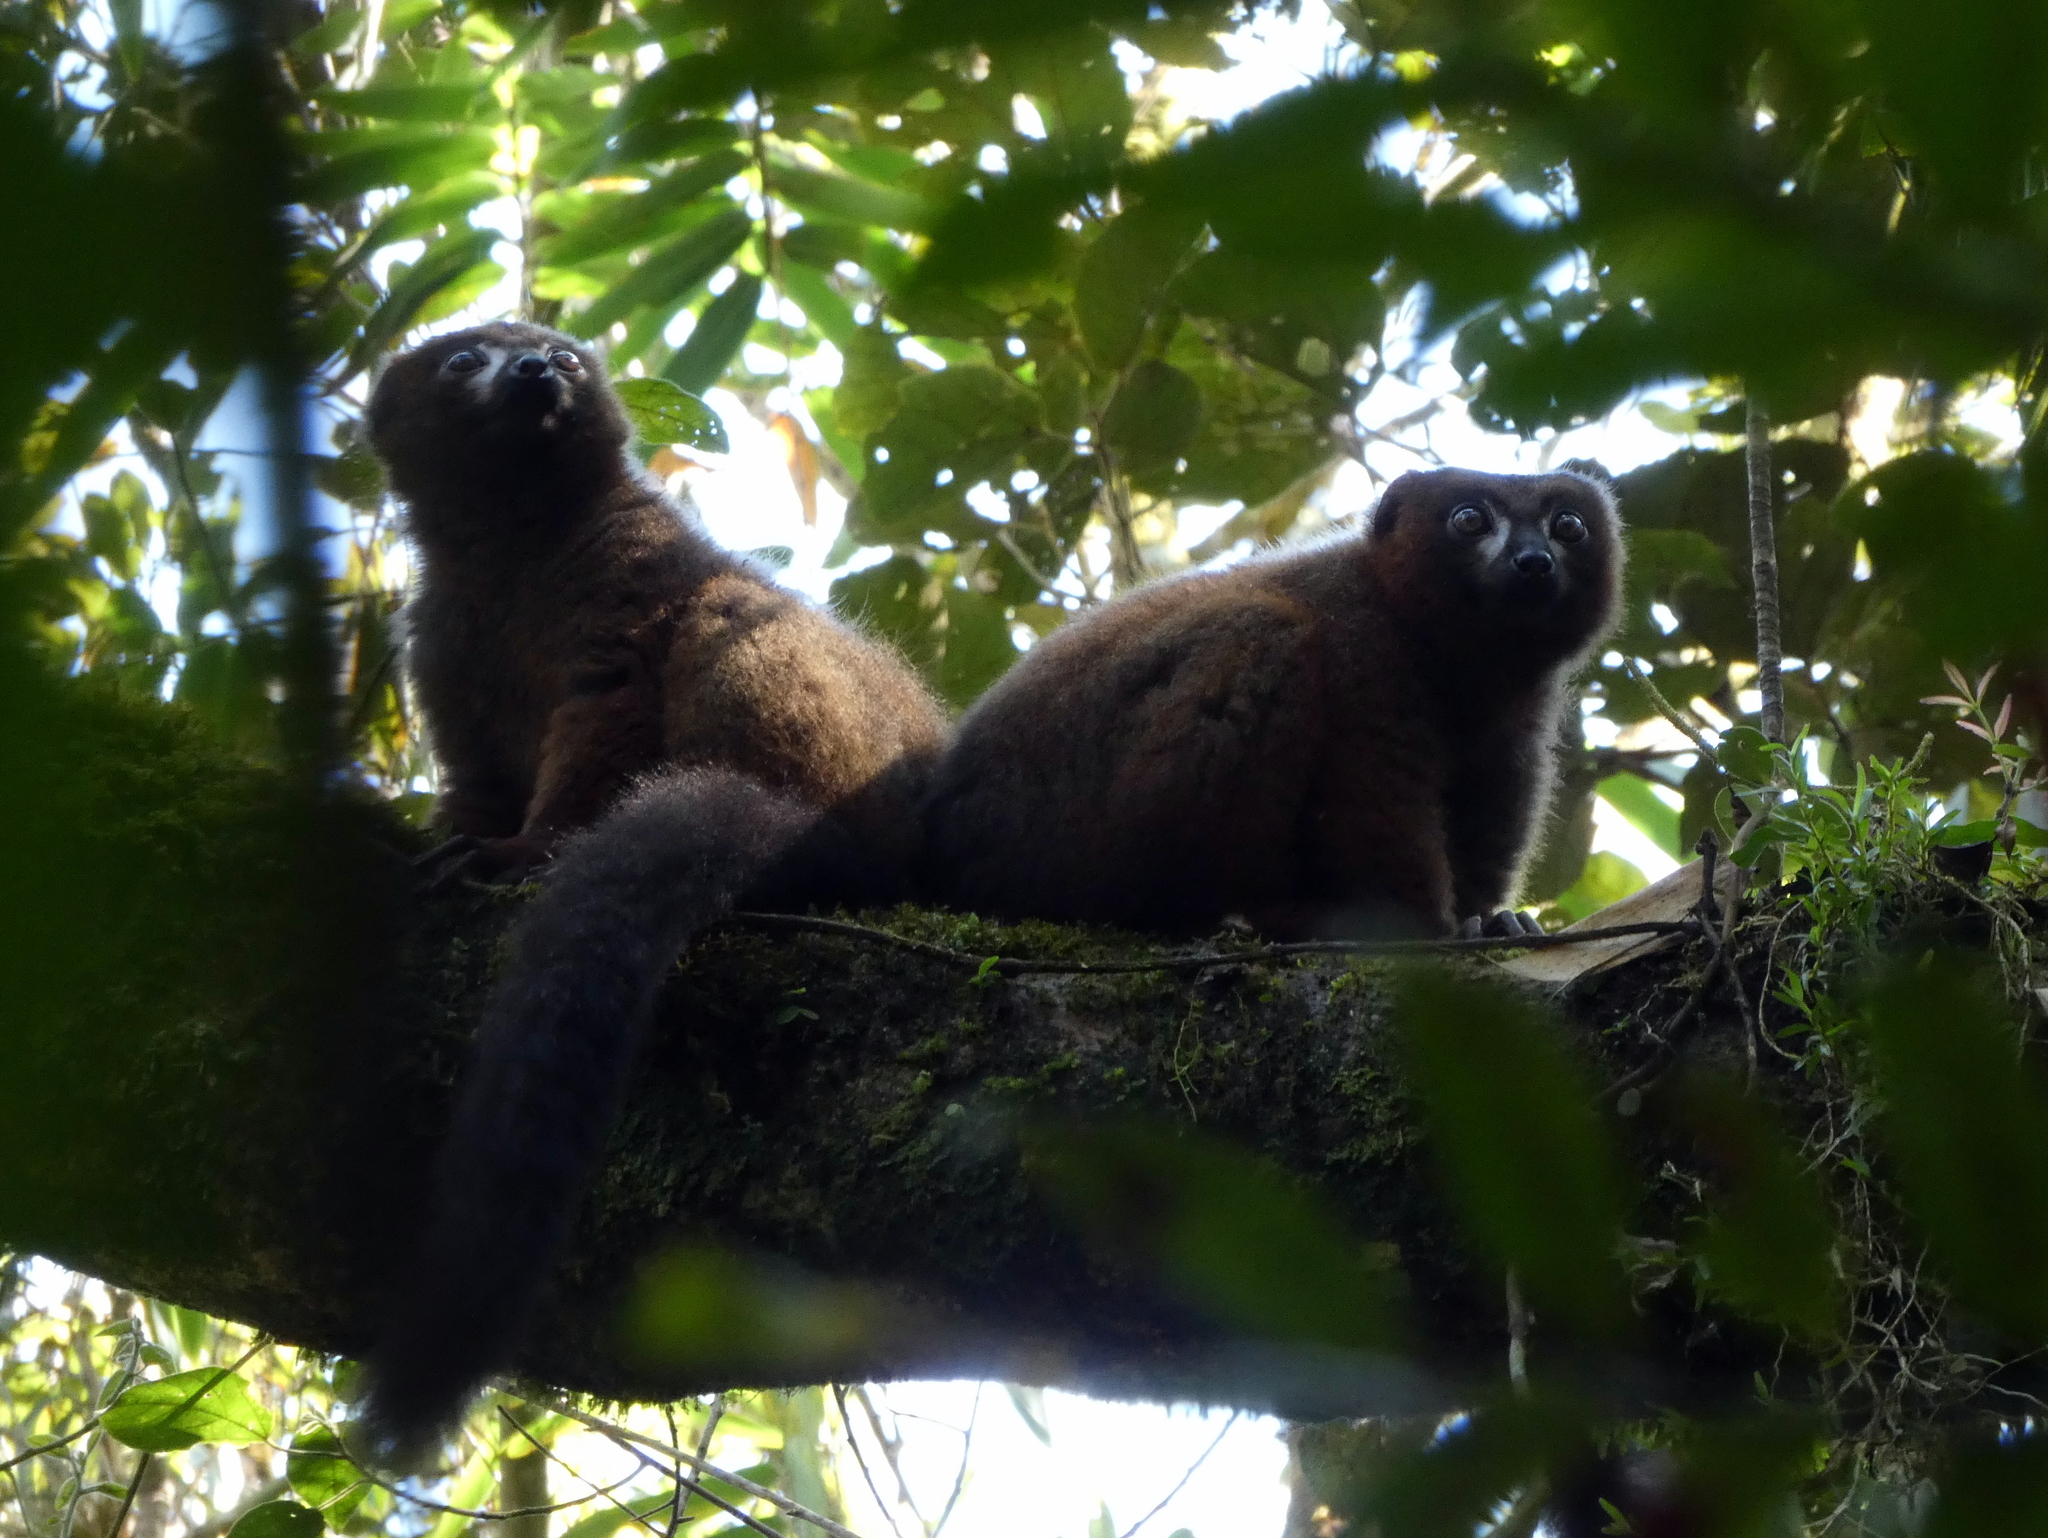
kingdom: Animalia
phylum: Chordata
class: Mammalia
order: Primates
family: Lemuridae
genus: Eulemur
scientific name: Eulemur rubriventer
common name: Red-bellied lemur
